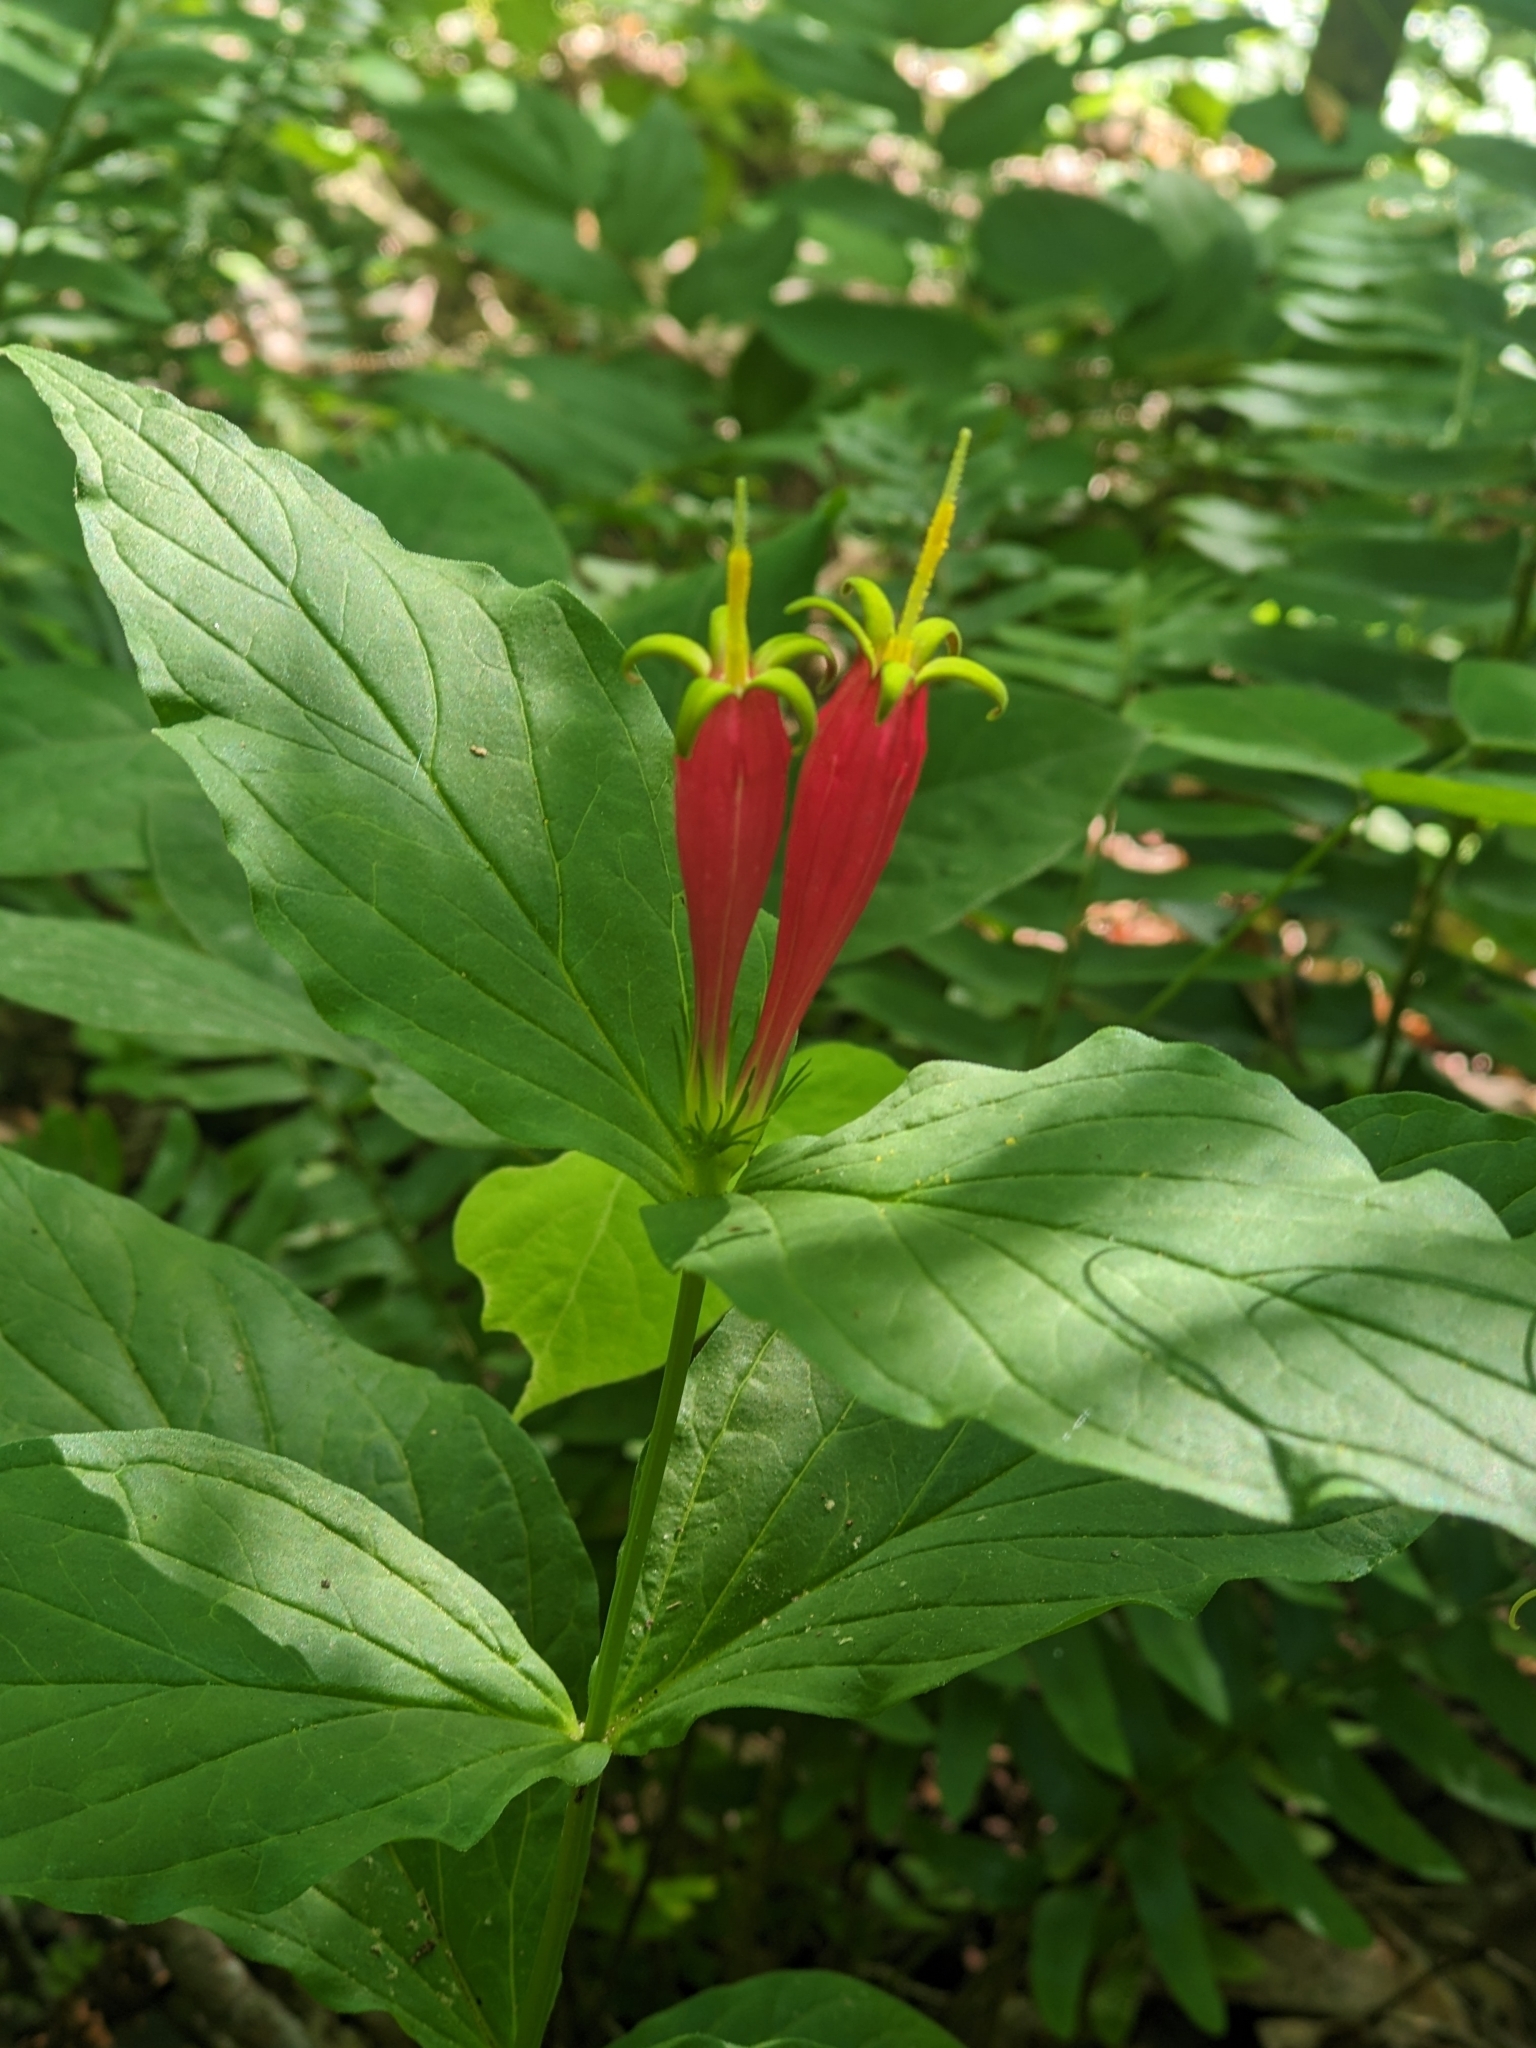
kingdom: Plantae
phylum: Tracheophyta
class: Magnoliopsida
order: Gentianales
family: Loganiaceae
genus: Spigelia
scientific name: Spigelia marilandica
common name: Indian-pink
